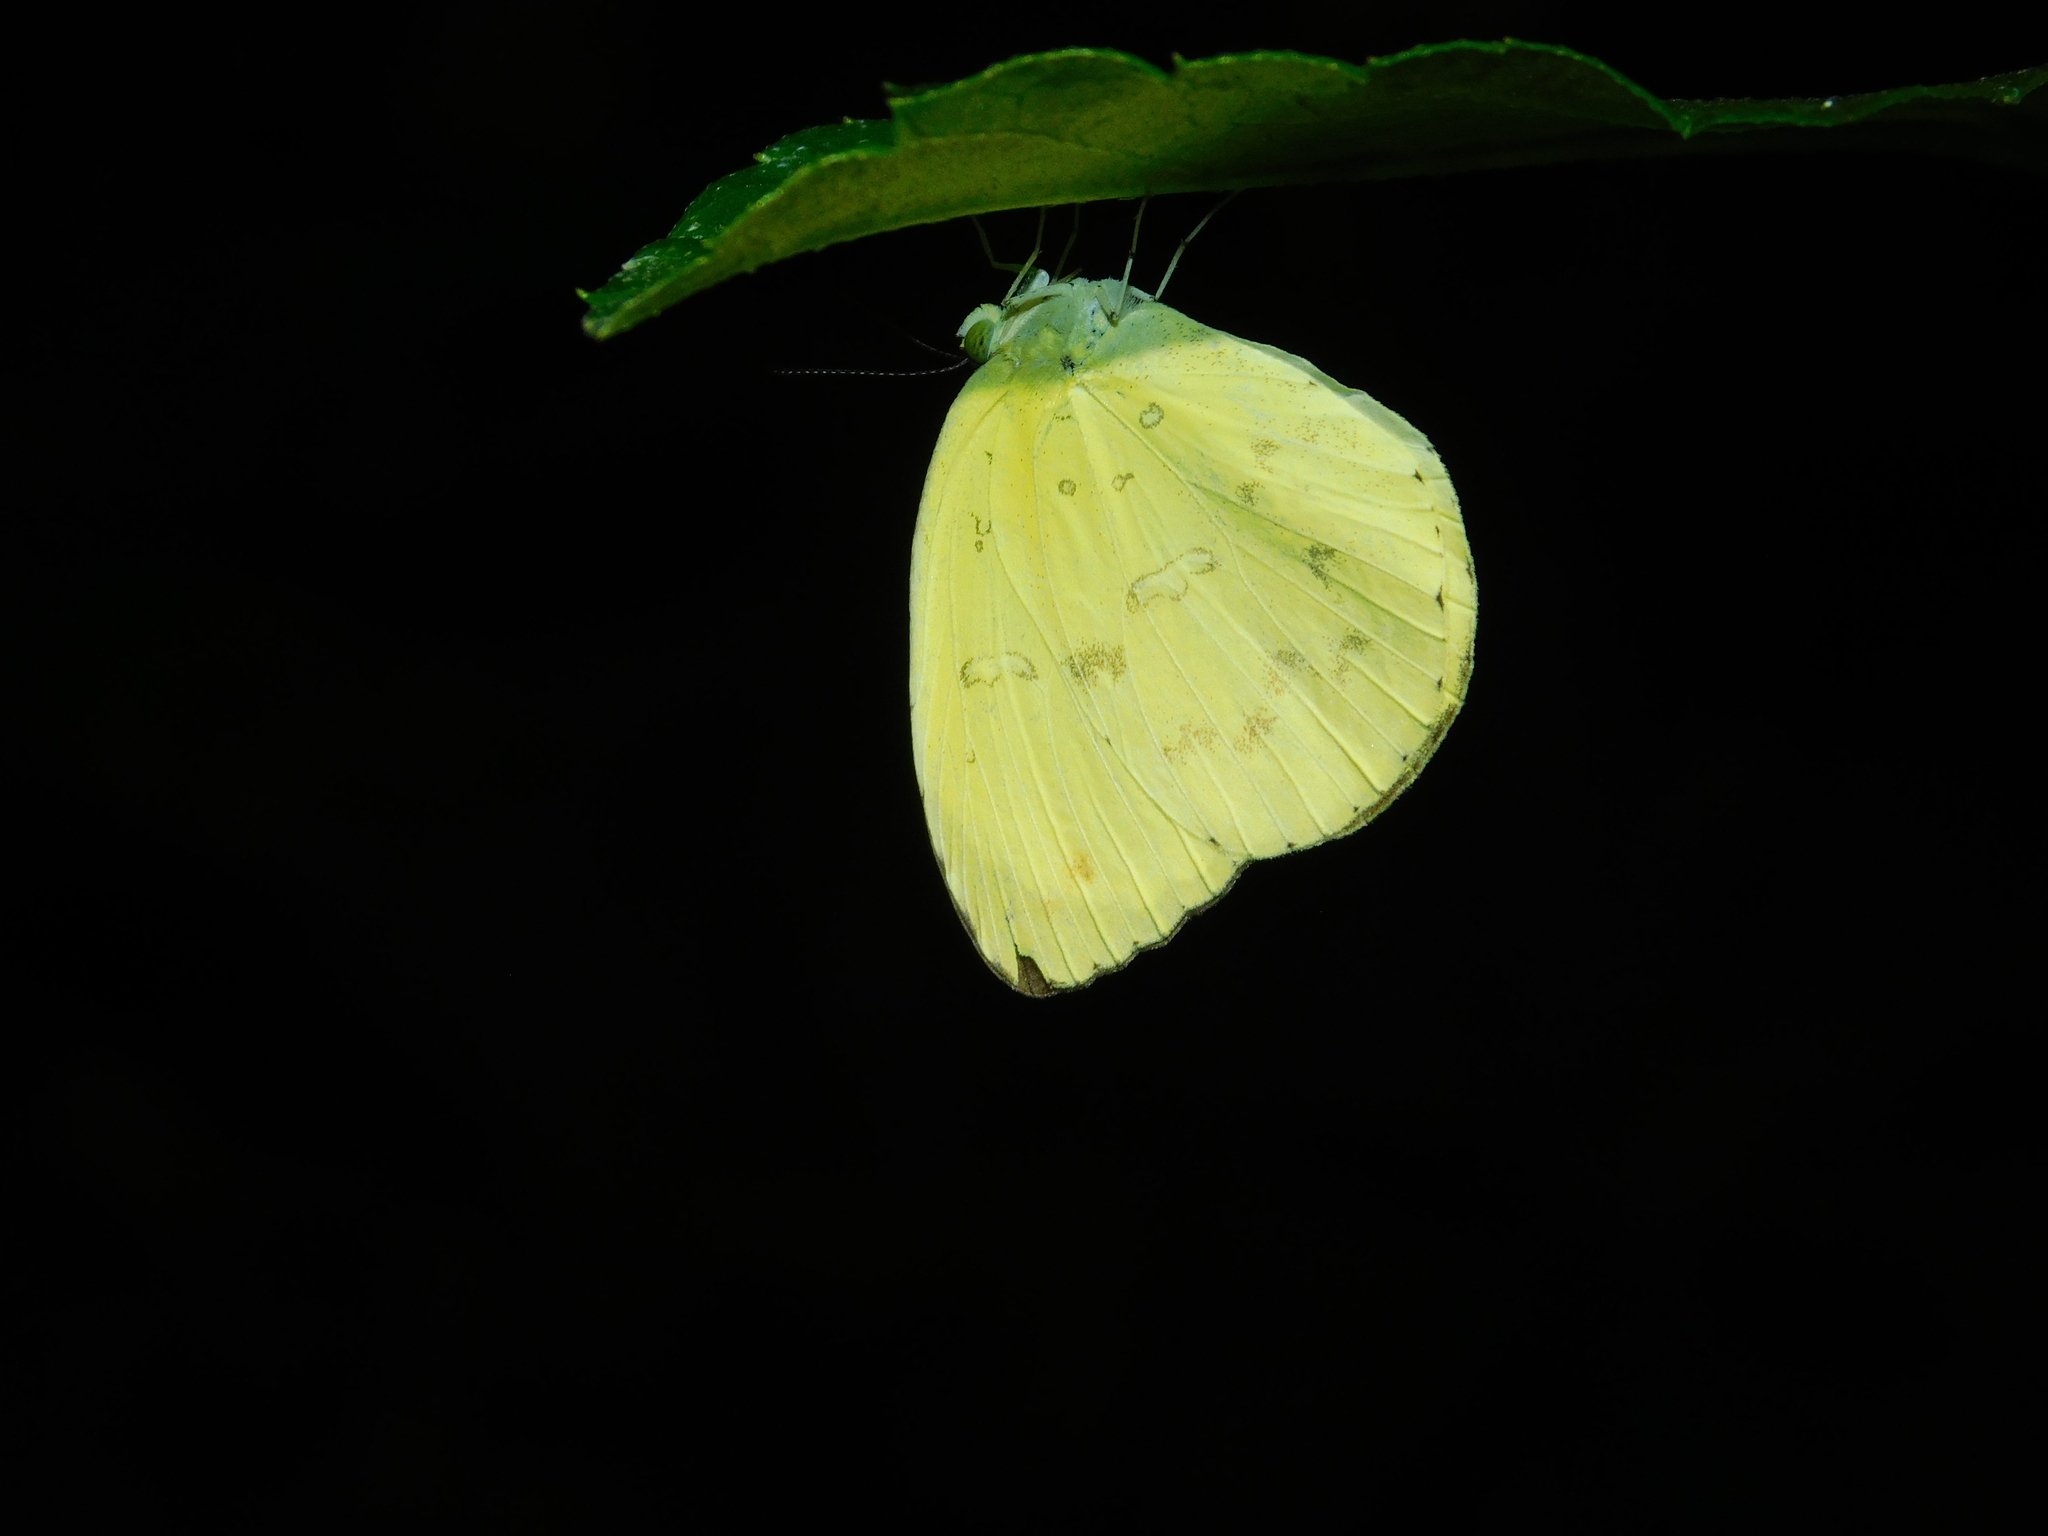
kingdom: Animalia
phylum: Arthropoda
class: Insecta
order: Lepidoptera
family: Pieridae
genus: Eurema
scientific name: Eurema blanda
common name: Three-spot grass yellow
